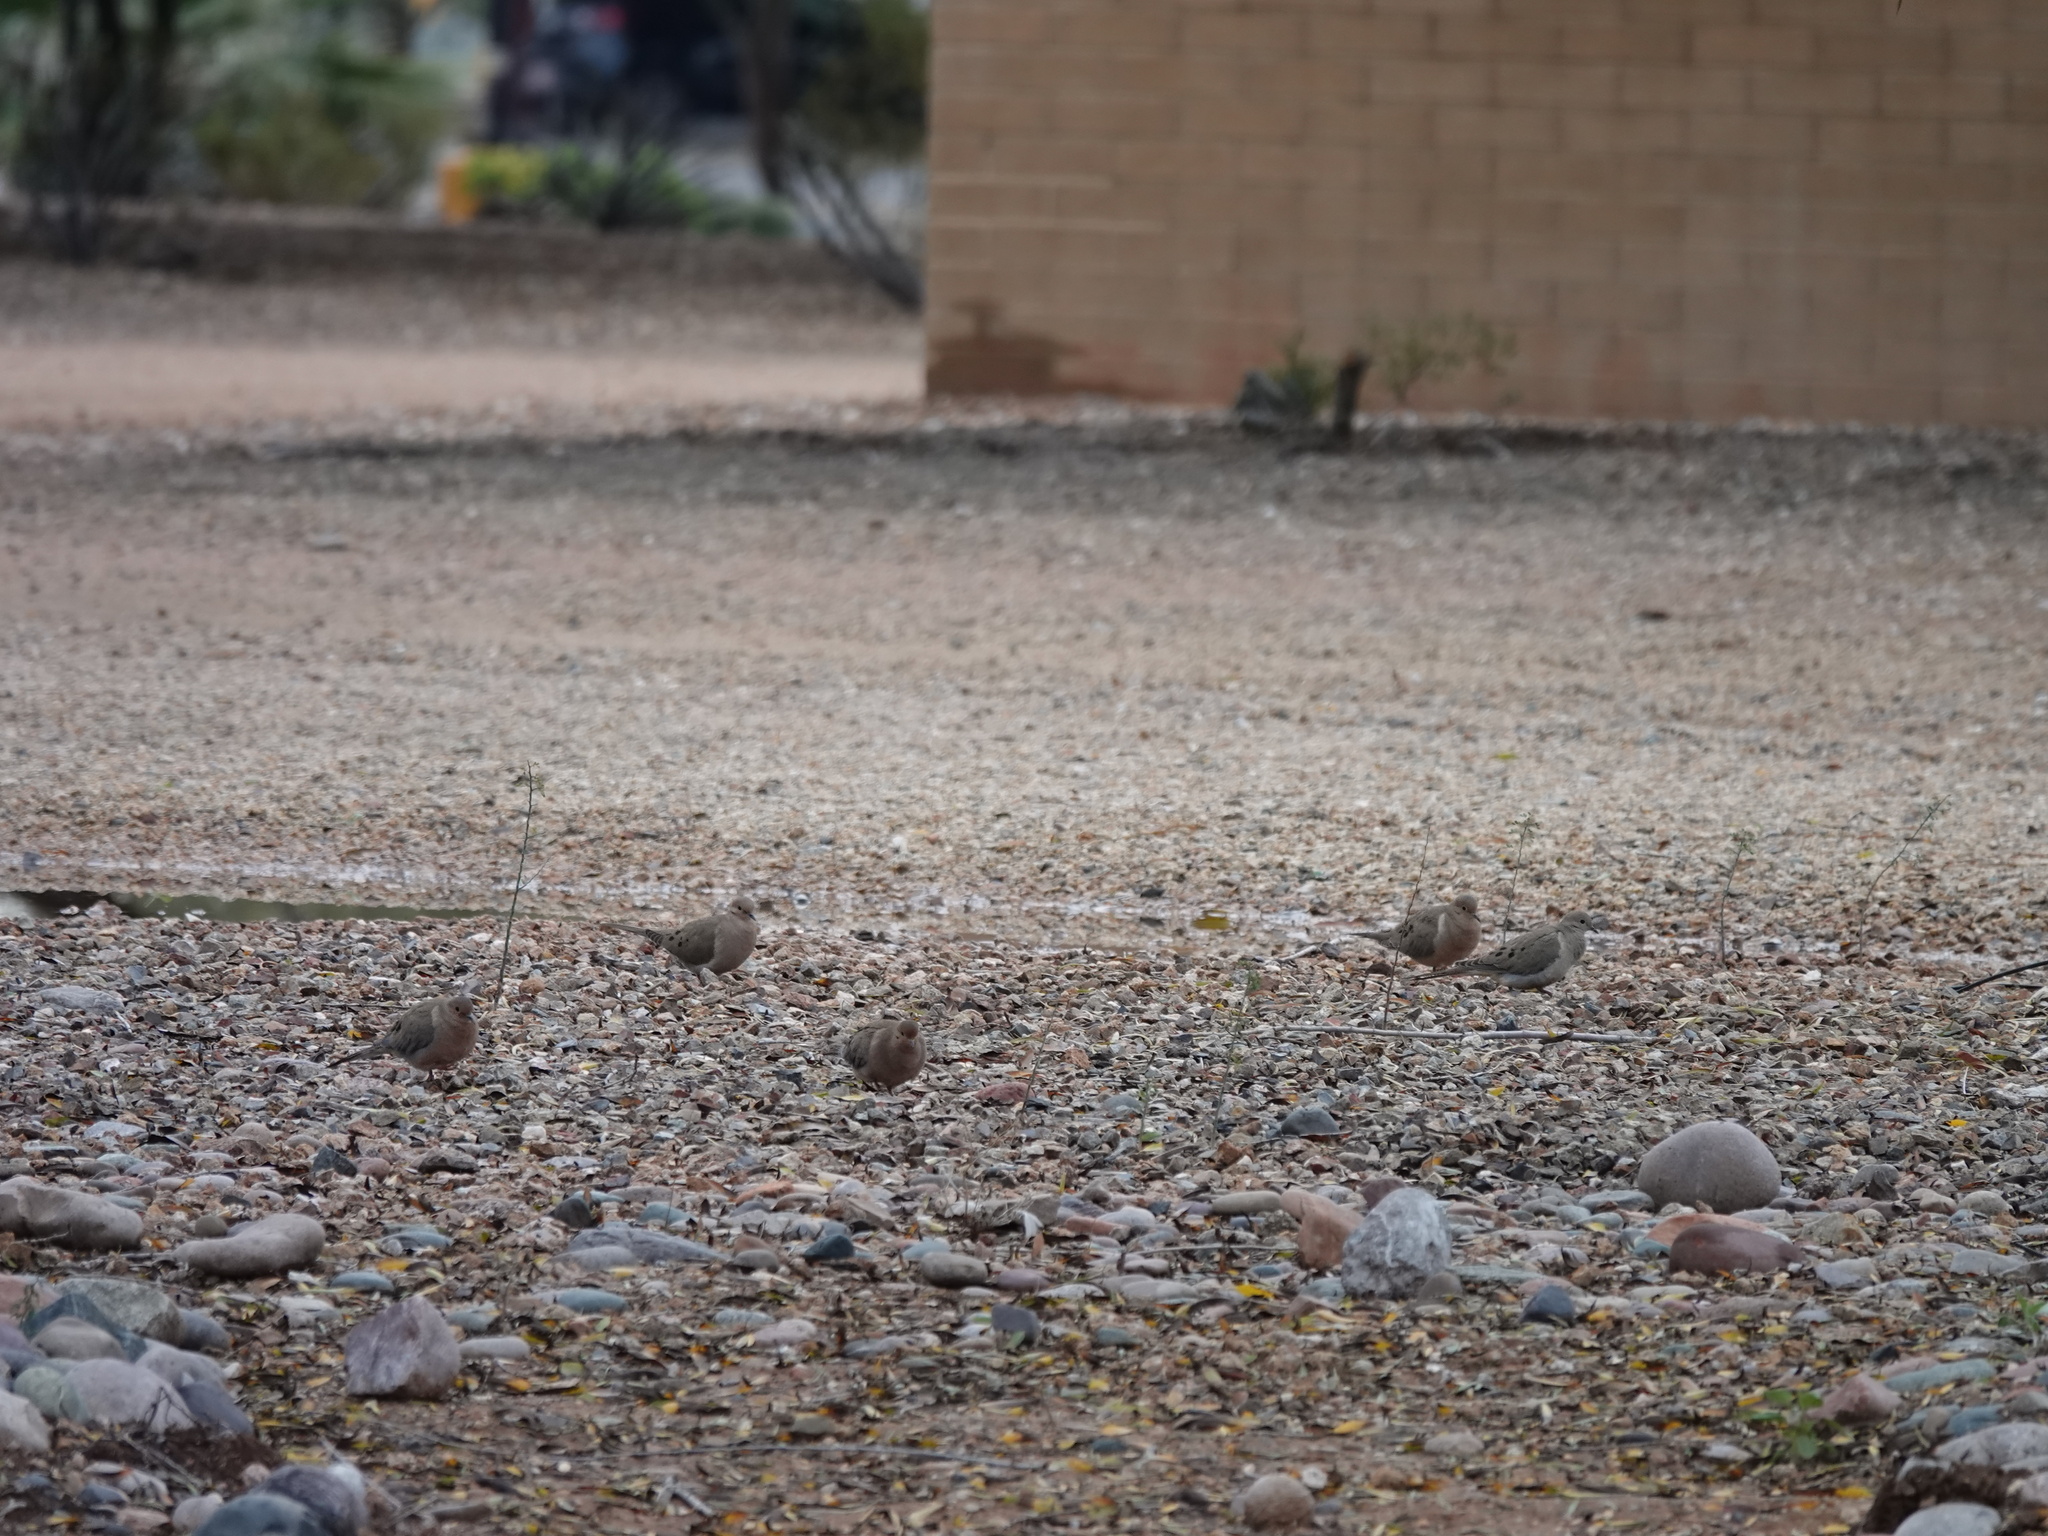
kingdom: Animalia
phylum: Chordata
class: Aves
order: Columbiformes
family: Columbidae
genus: Zenaida
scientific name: Zenaida macroura
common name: Mourning dove
